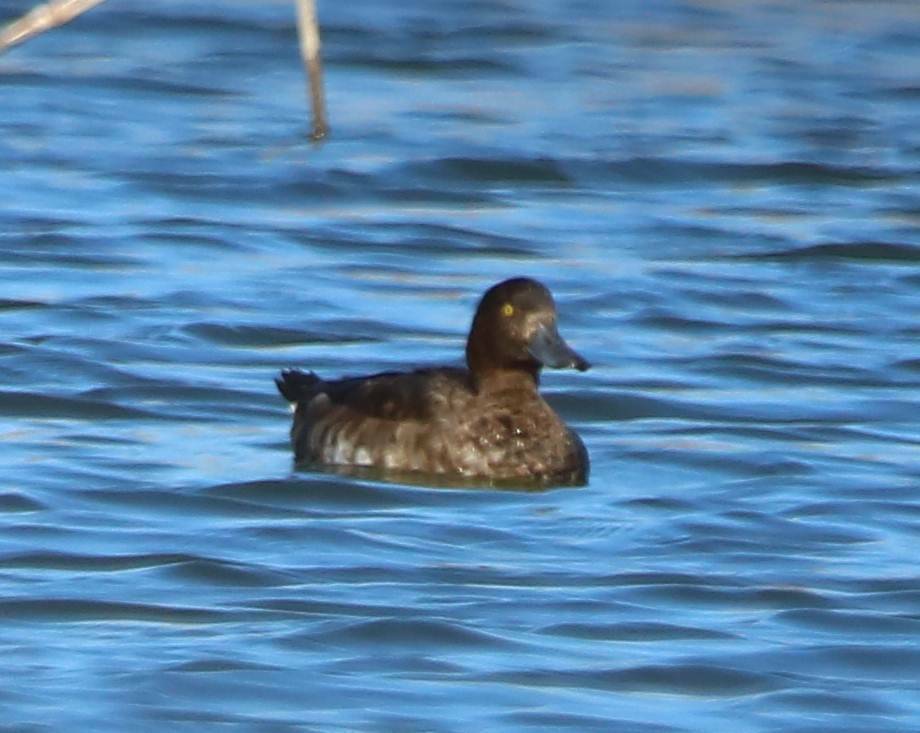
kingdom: Animalia
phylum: Chordata
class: Aves
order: Anseriformes
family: Anatidae
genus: Aythya
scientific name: Aythya fuligula
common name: Tufted duck
